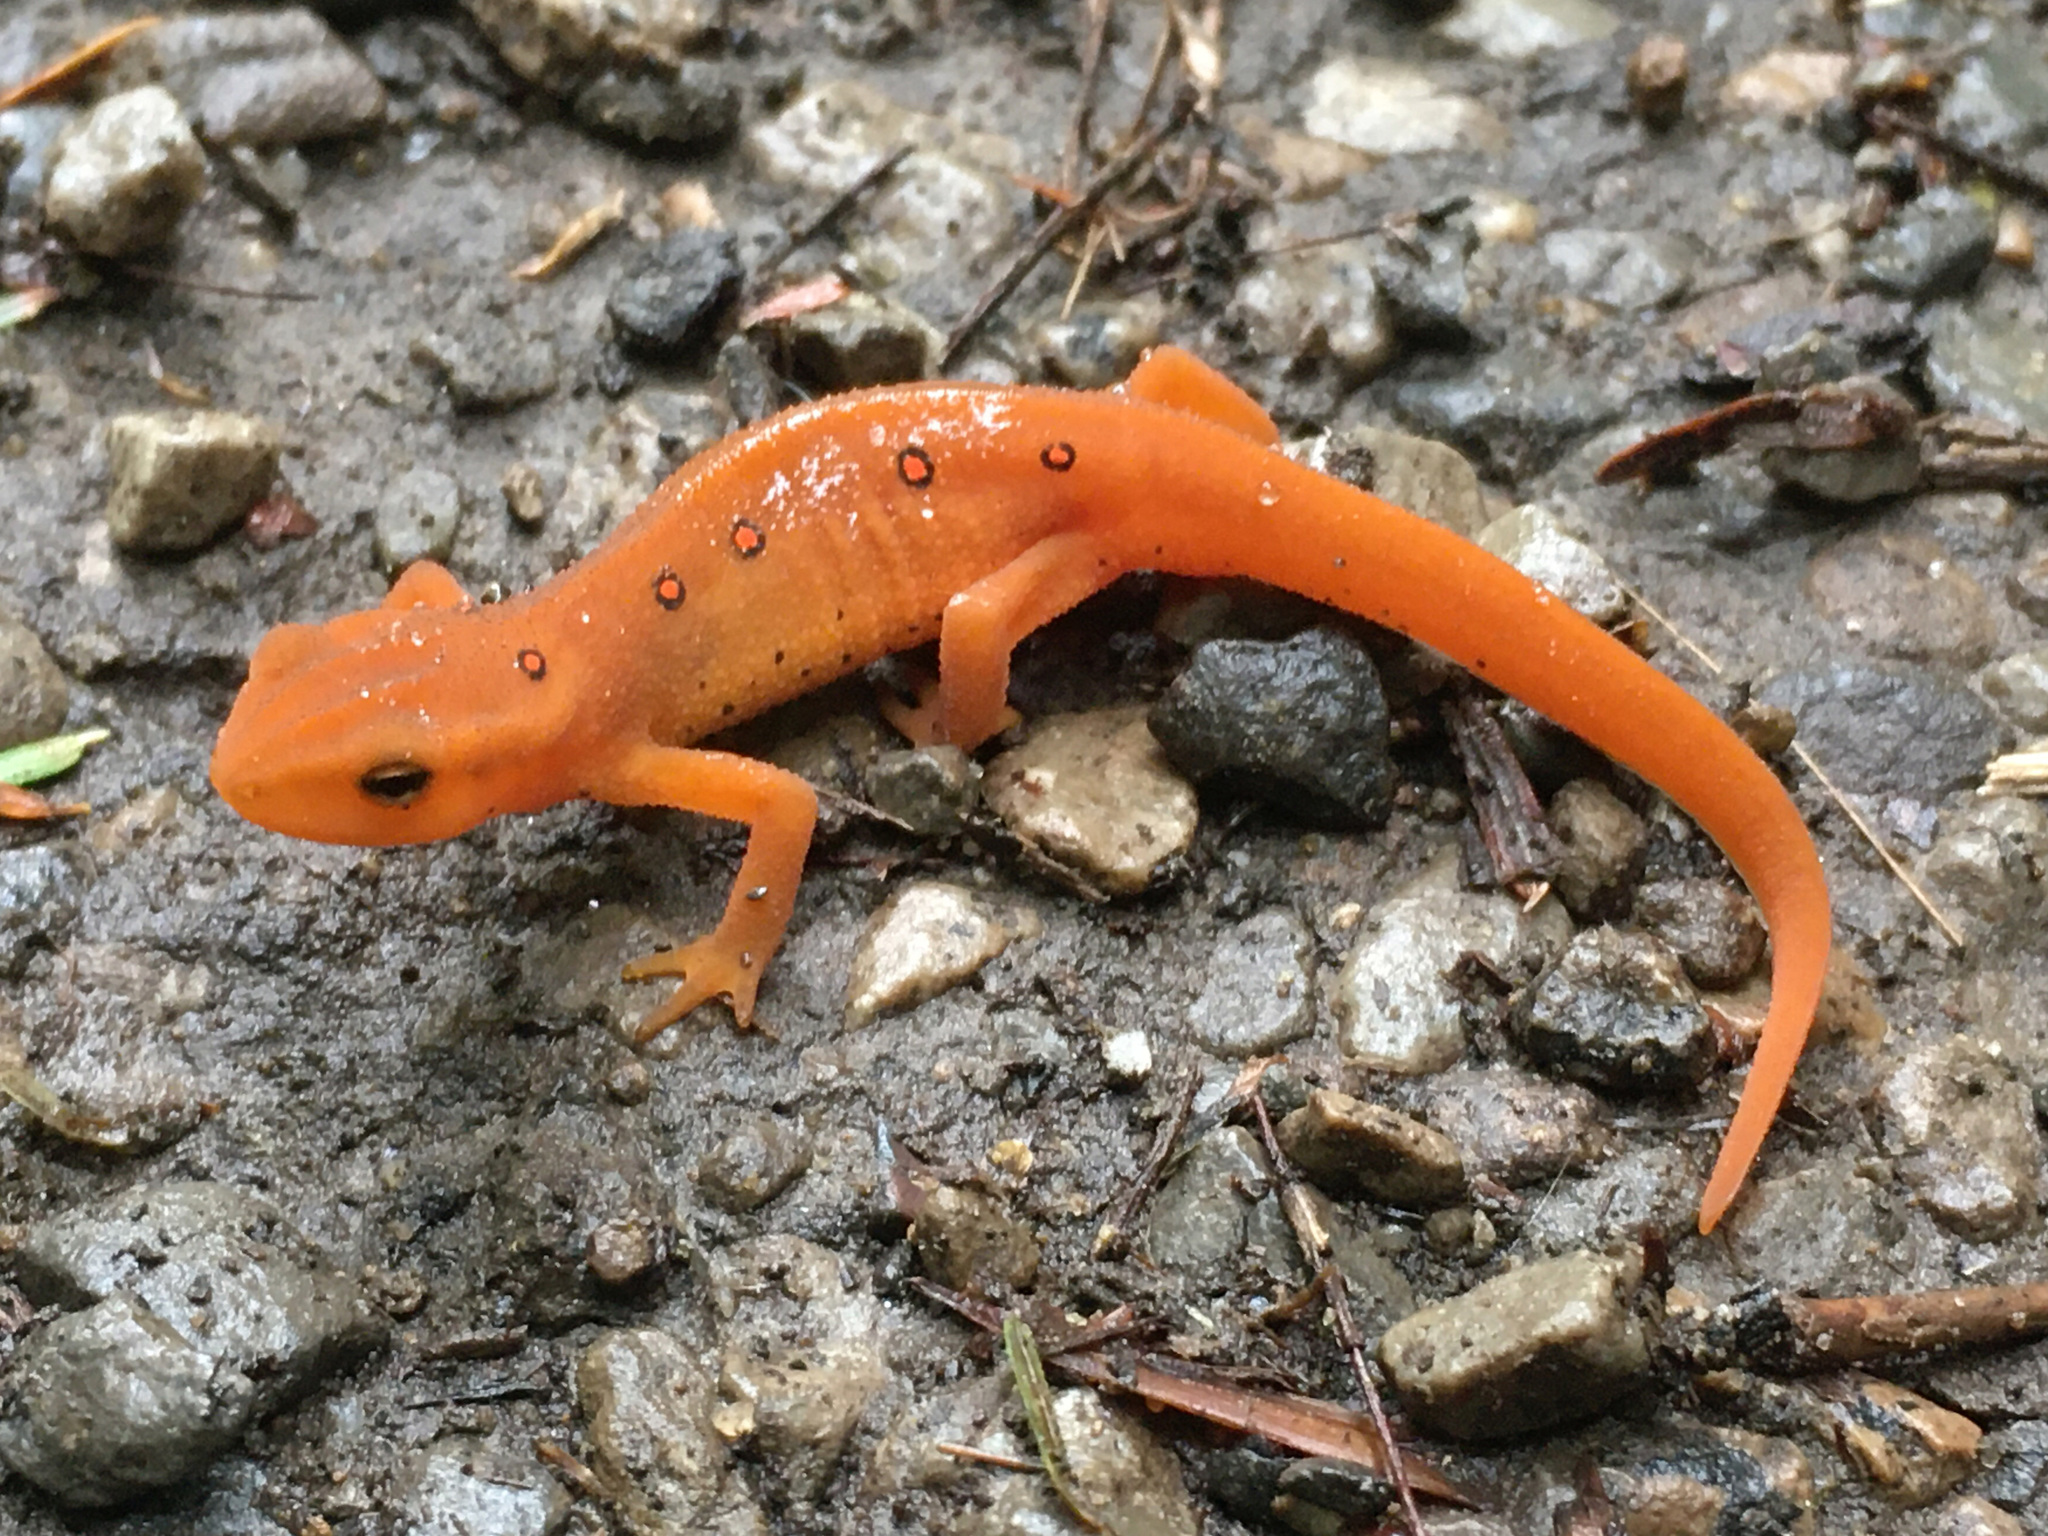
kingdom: Animalia
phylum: Chordata
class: Amphibia
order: Caudata
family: Salamandridae
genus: Notophthalmus
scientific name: Notophthalmus viridescens
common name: Eastern newt
